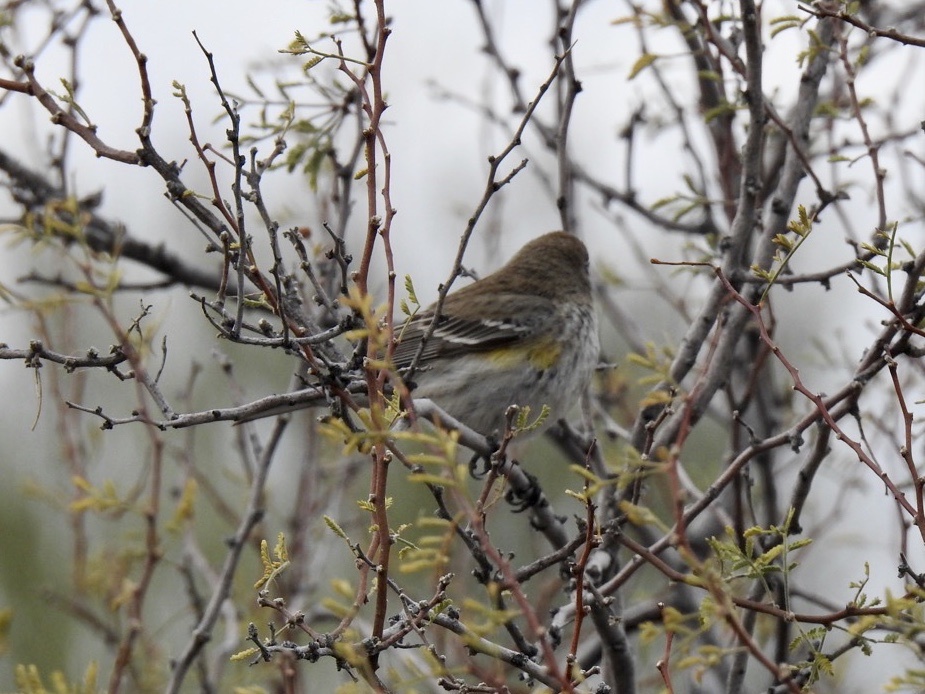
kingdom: Animalia
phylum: Chordata
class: Aves
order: Passeriformes
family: Parulidae
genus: Setophaga
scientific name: Setophaga coronata
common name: Myrtle warbler
